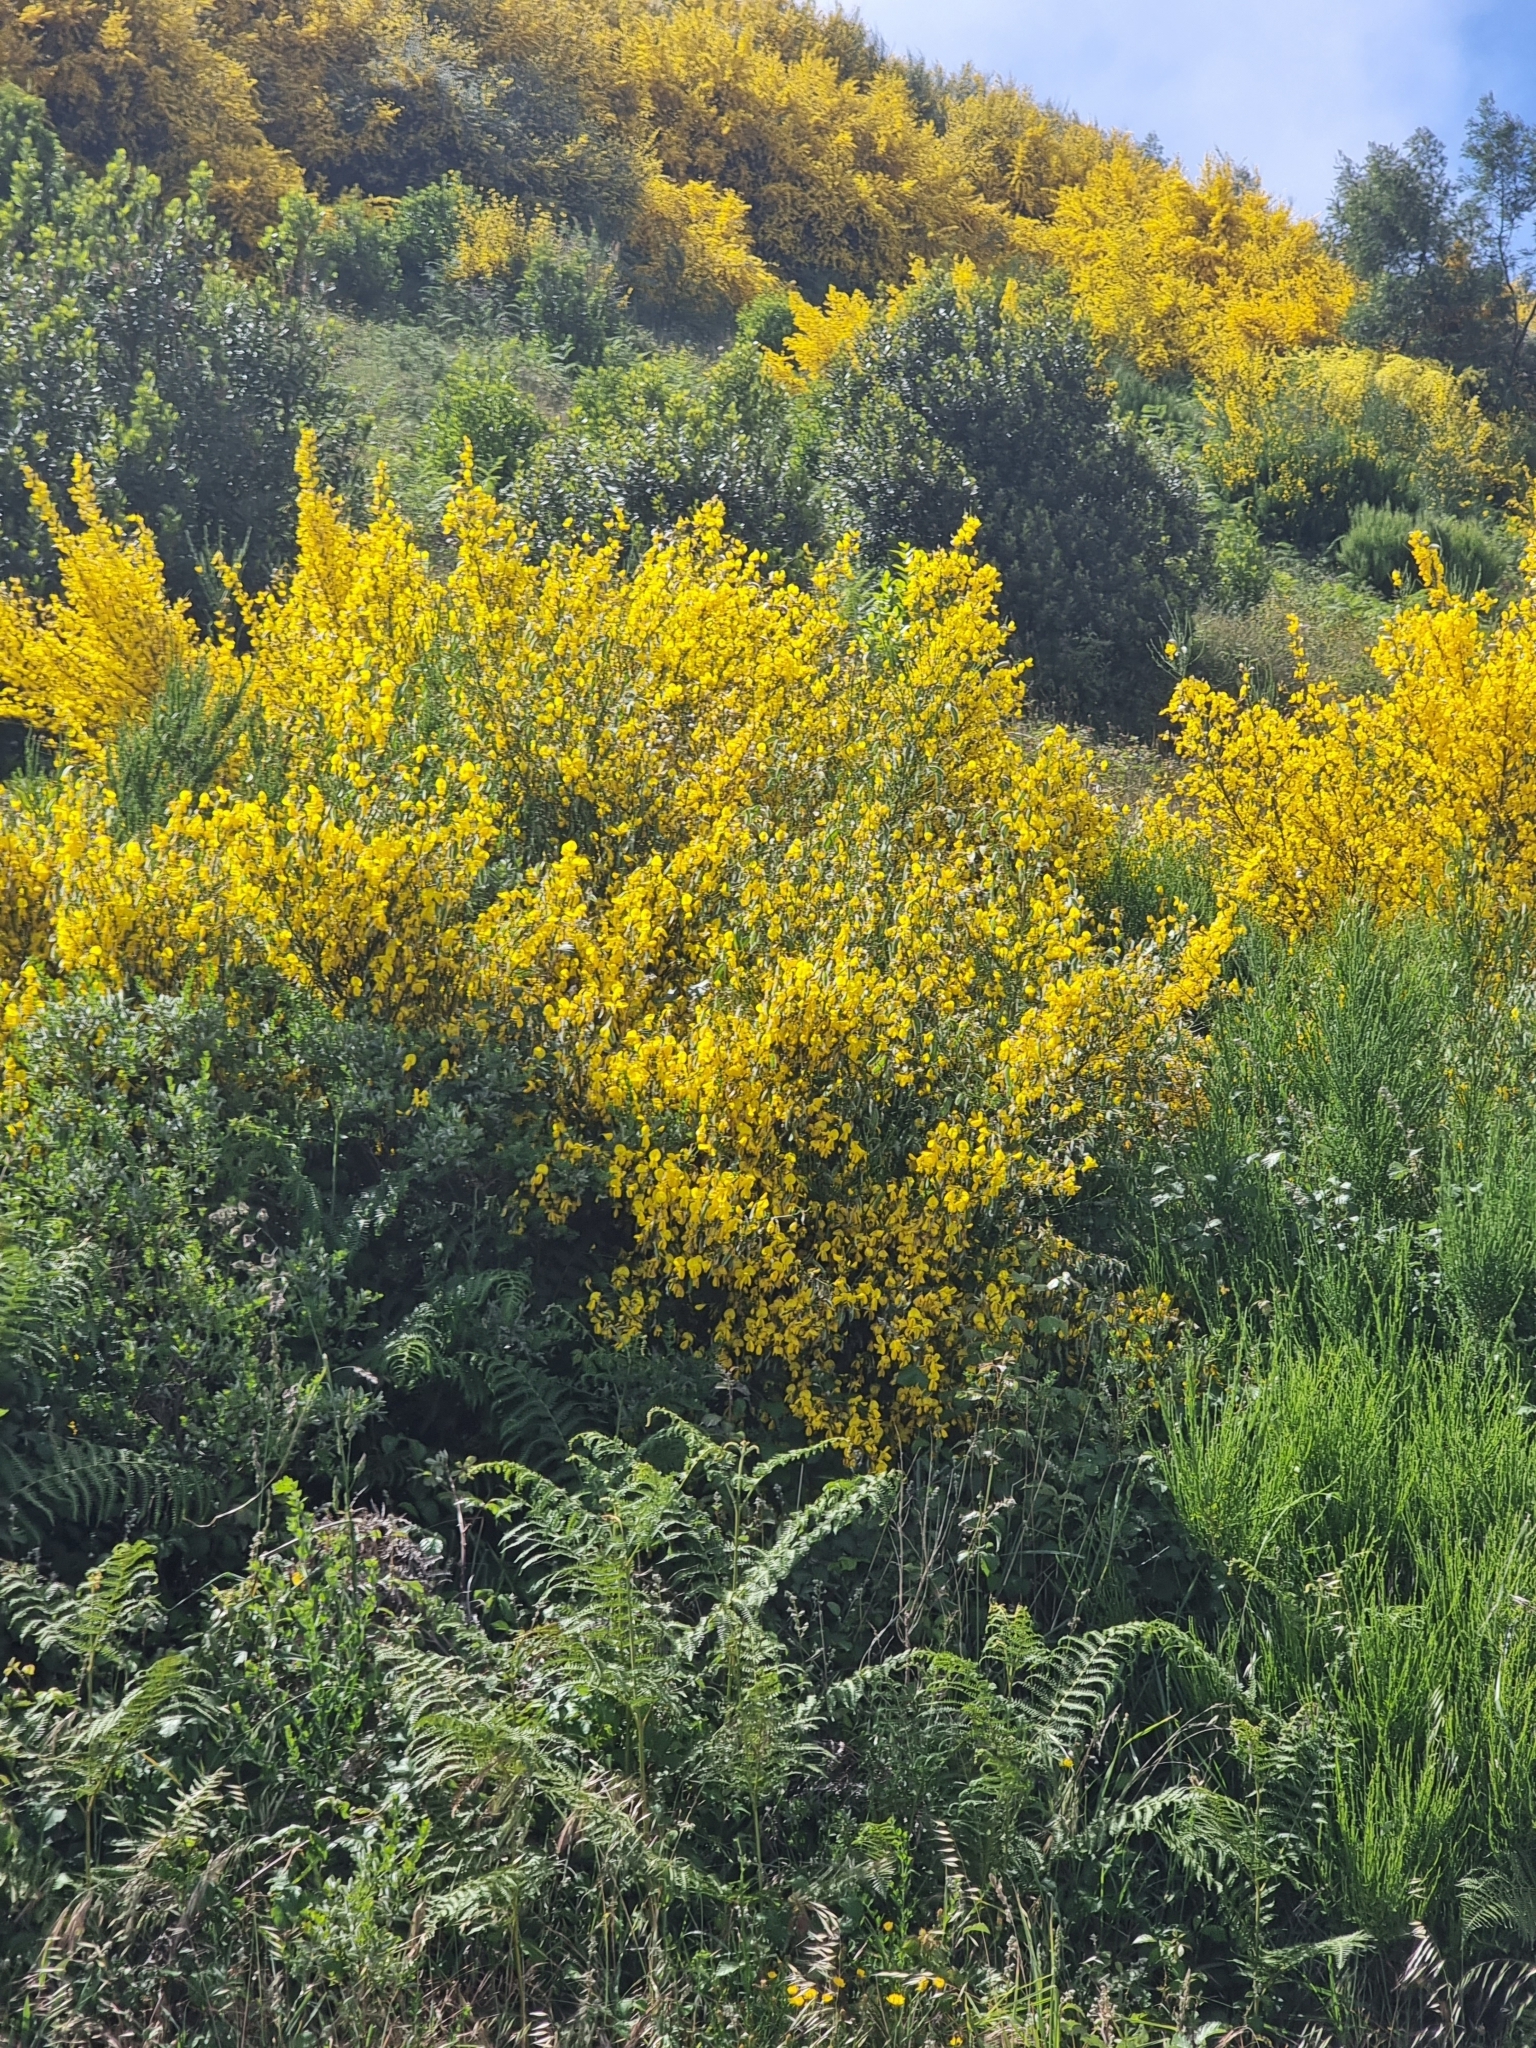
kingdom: Plantae
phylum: Tracheophyta
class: Magnoliopsida
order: Fabales
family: Fabaceae
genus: Cytisus
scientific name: Cytisus scoparius
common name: Scotch broom
